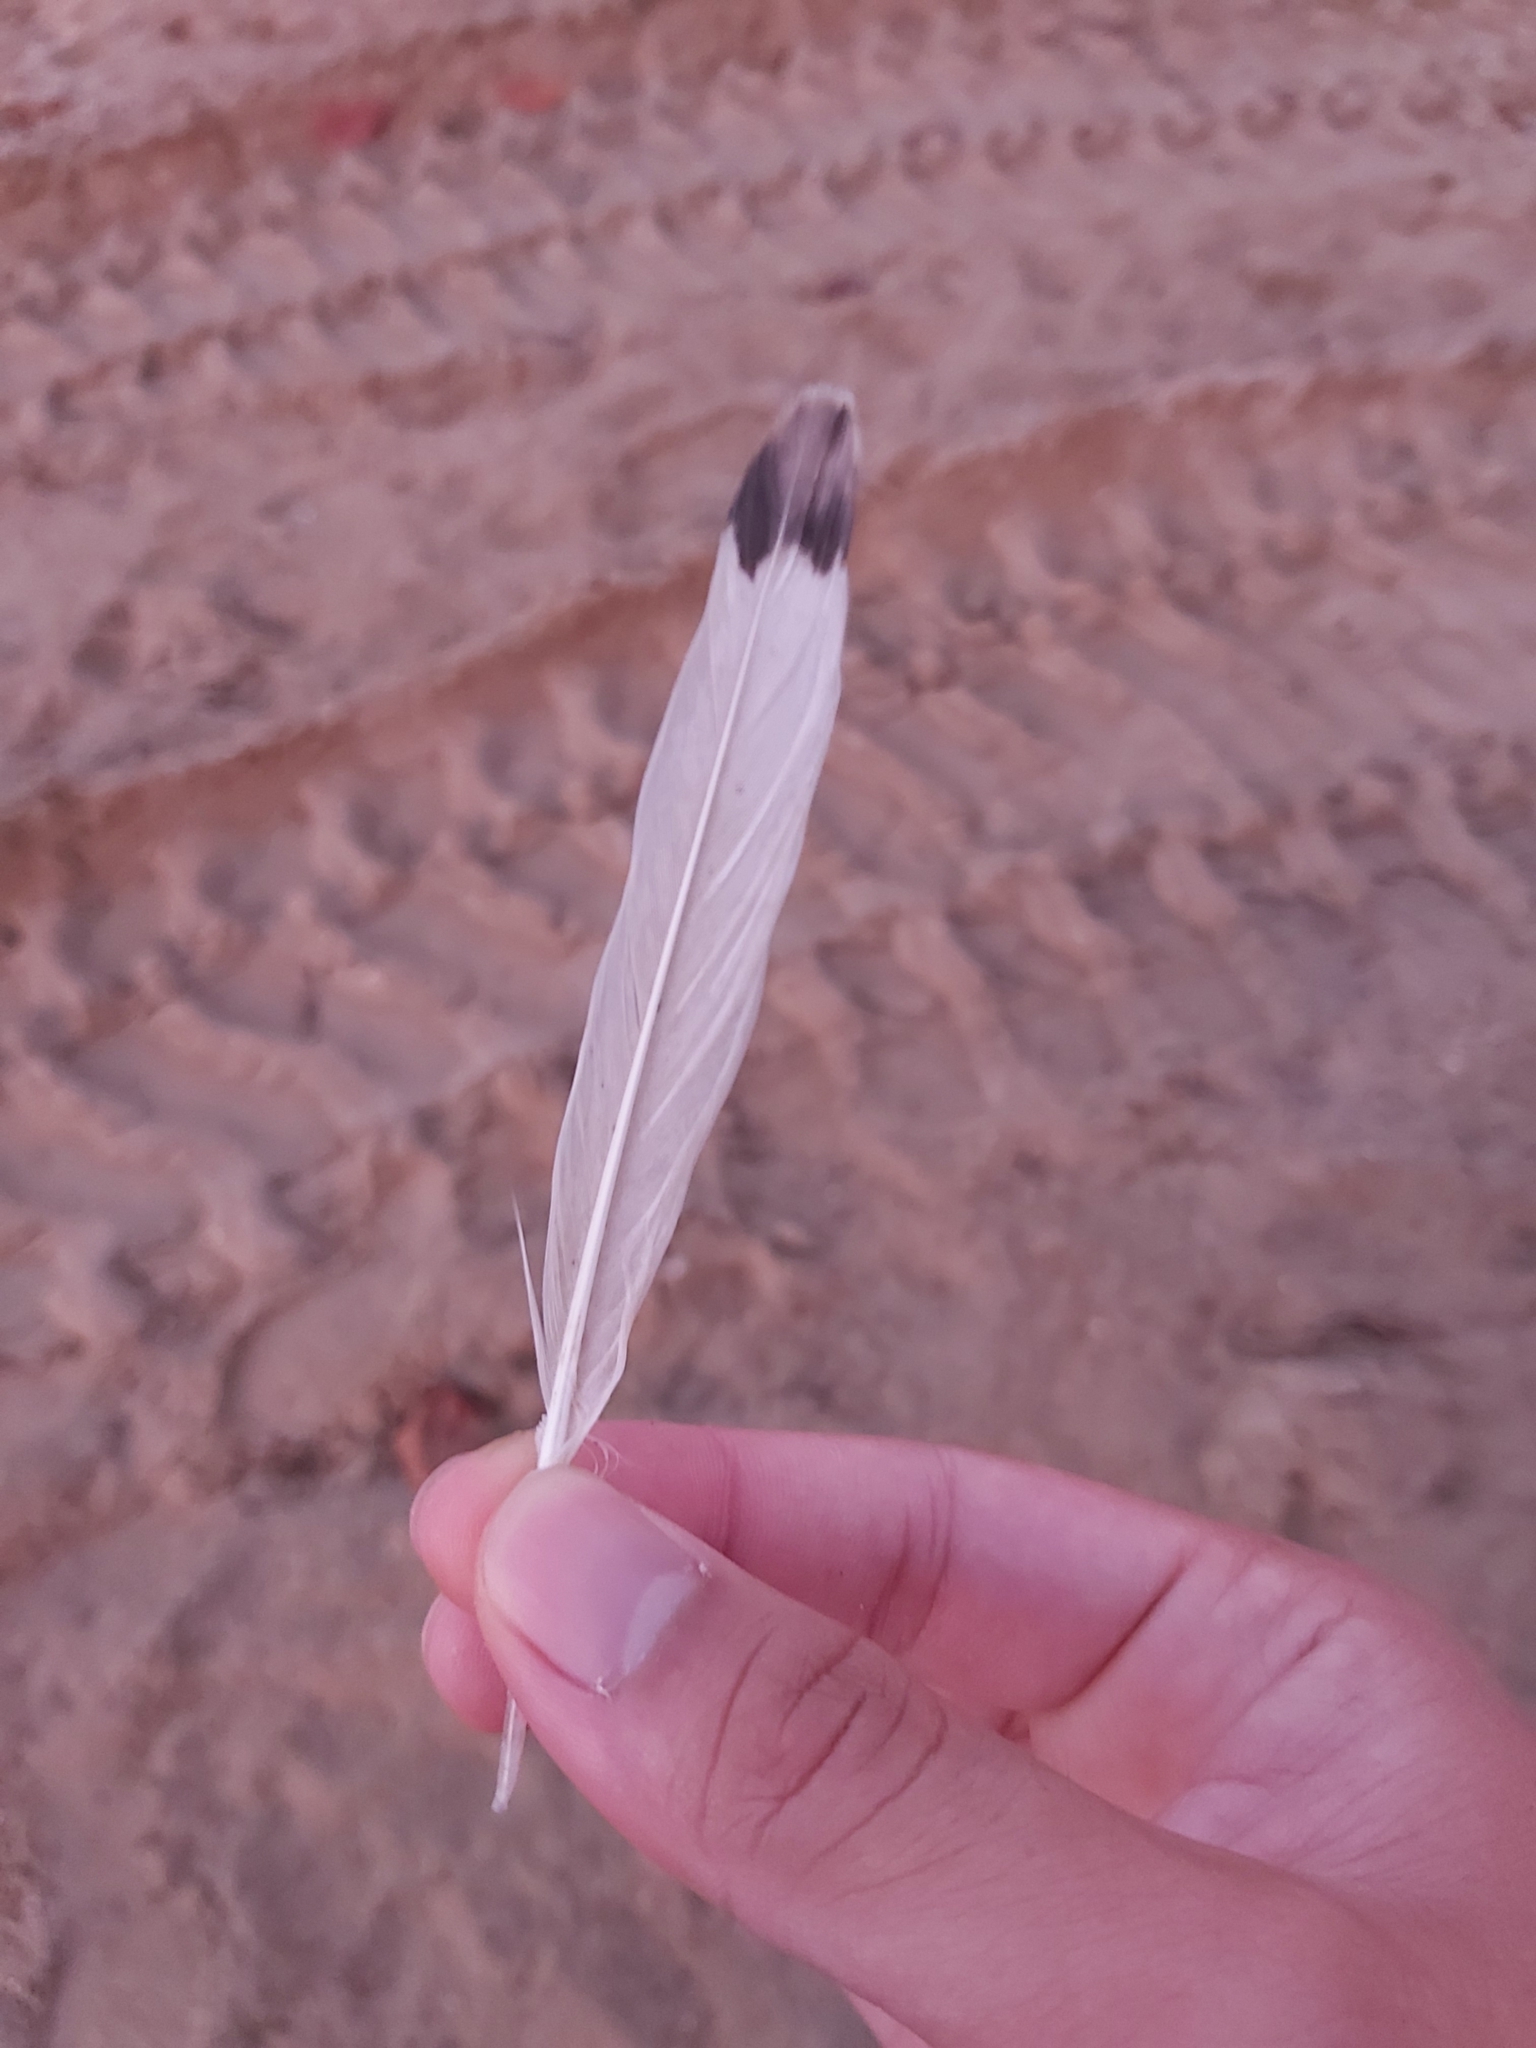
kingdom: Animalia
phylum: Chordata
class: Aves
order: Charadriiformes
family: Laridae
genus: Chroicocephalus
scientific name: Chroicocephalus novaehollandiae
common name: Silver gull
